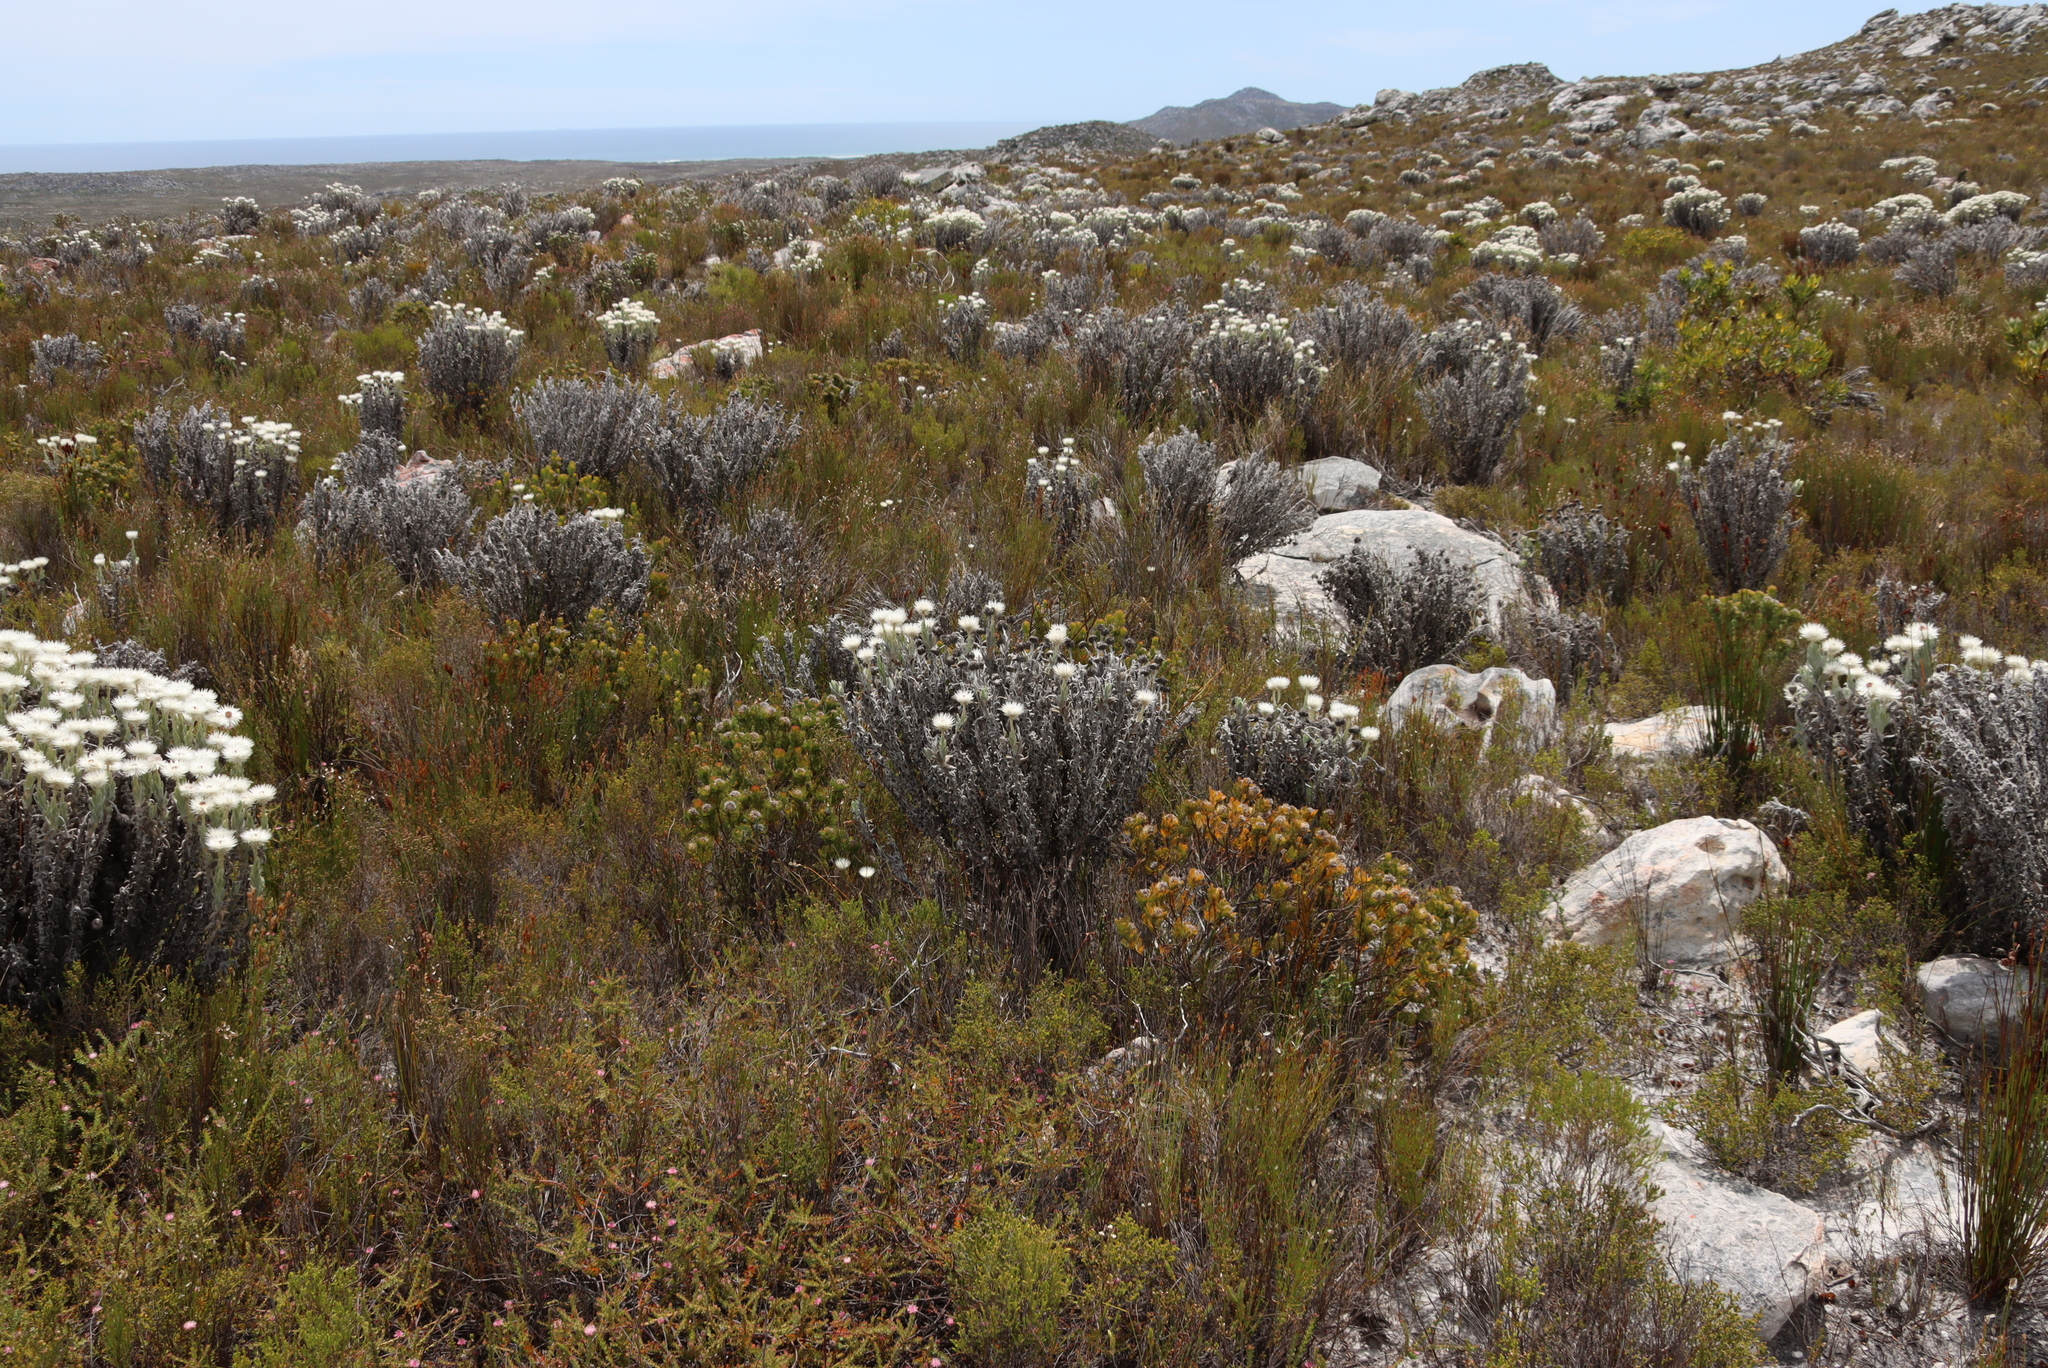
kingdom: Plantae
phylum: Tracheophyta
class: Magnoliopsida
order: Asterales
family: Asteraceae
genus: Syncarpha
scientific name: Syncarpha vestita
